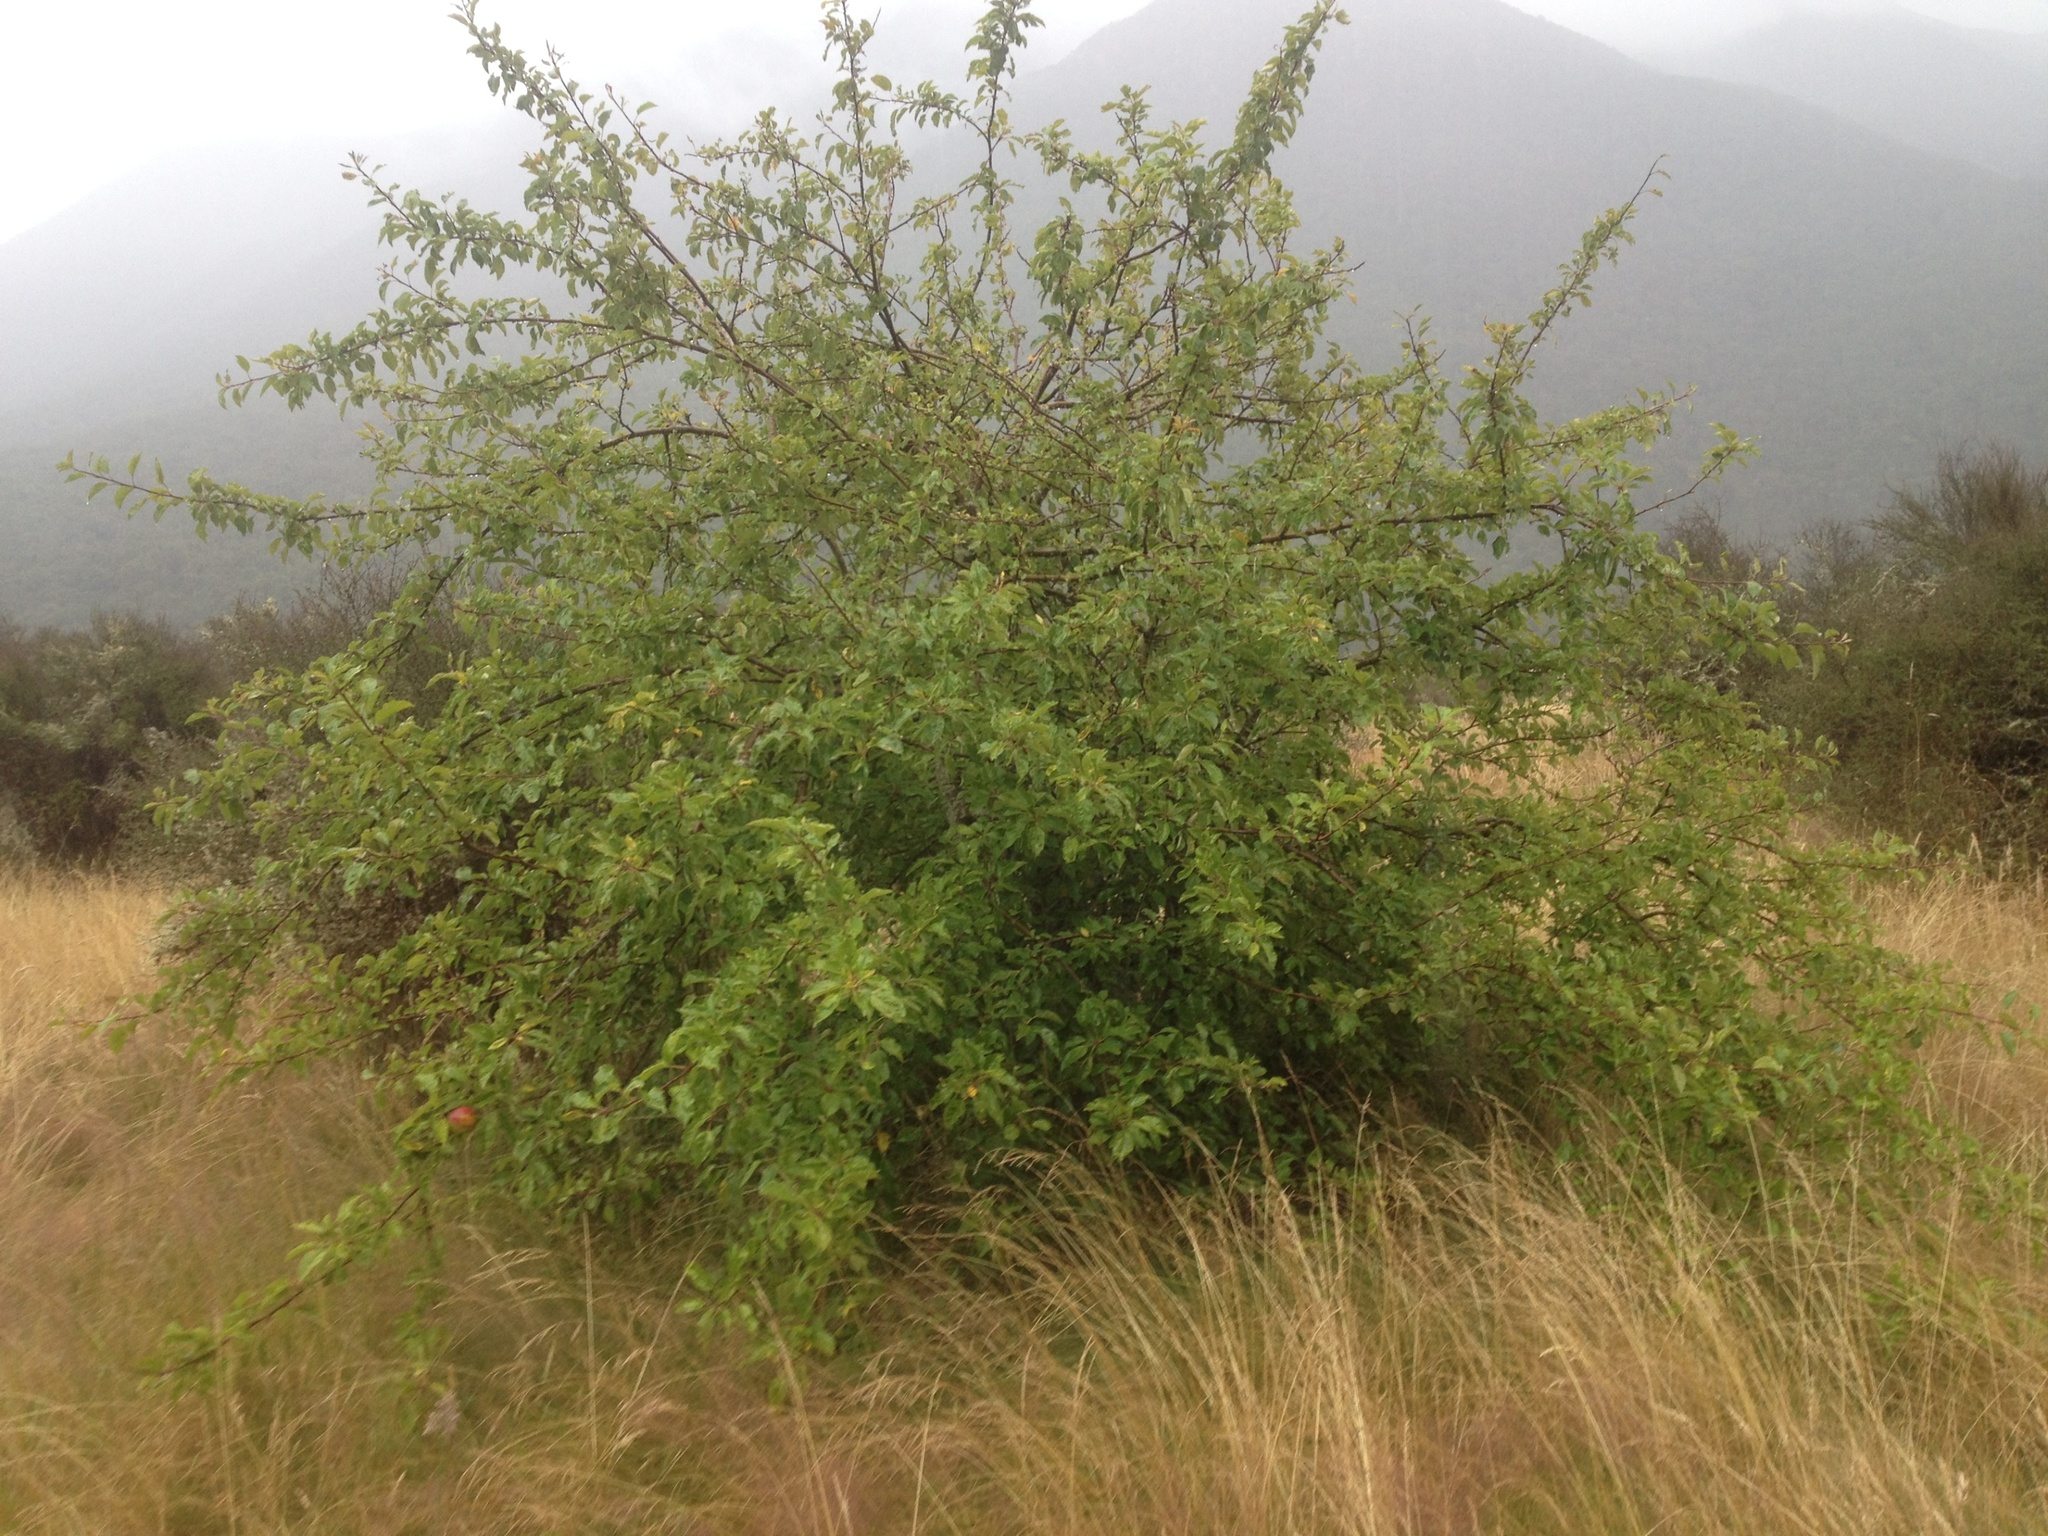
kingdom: Plantae
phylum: Tracheophyta
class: Magnoliopsida
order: Rosales
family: Rosaceae
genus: Malus
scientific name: Malus domestica
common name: Apple
